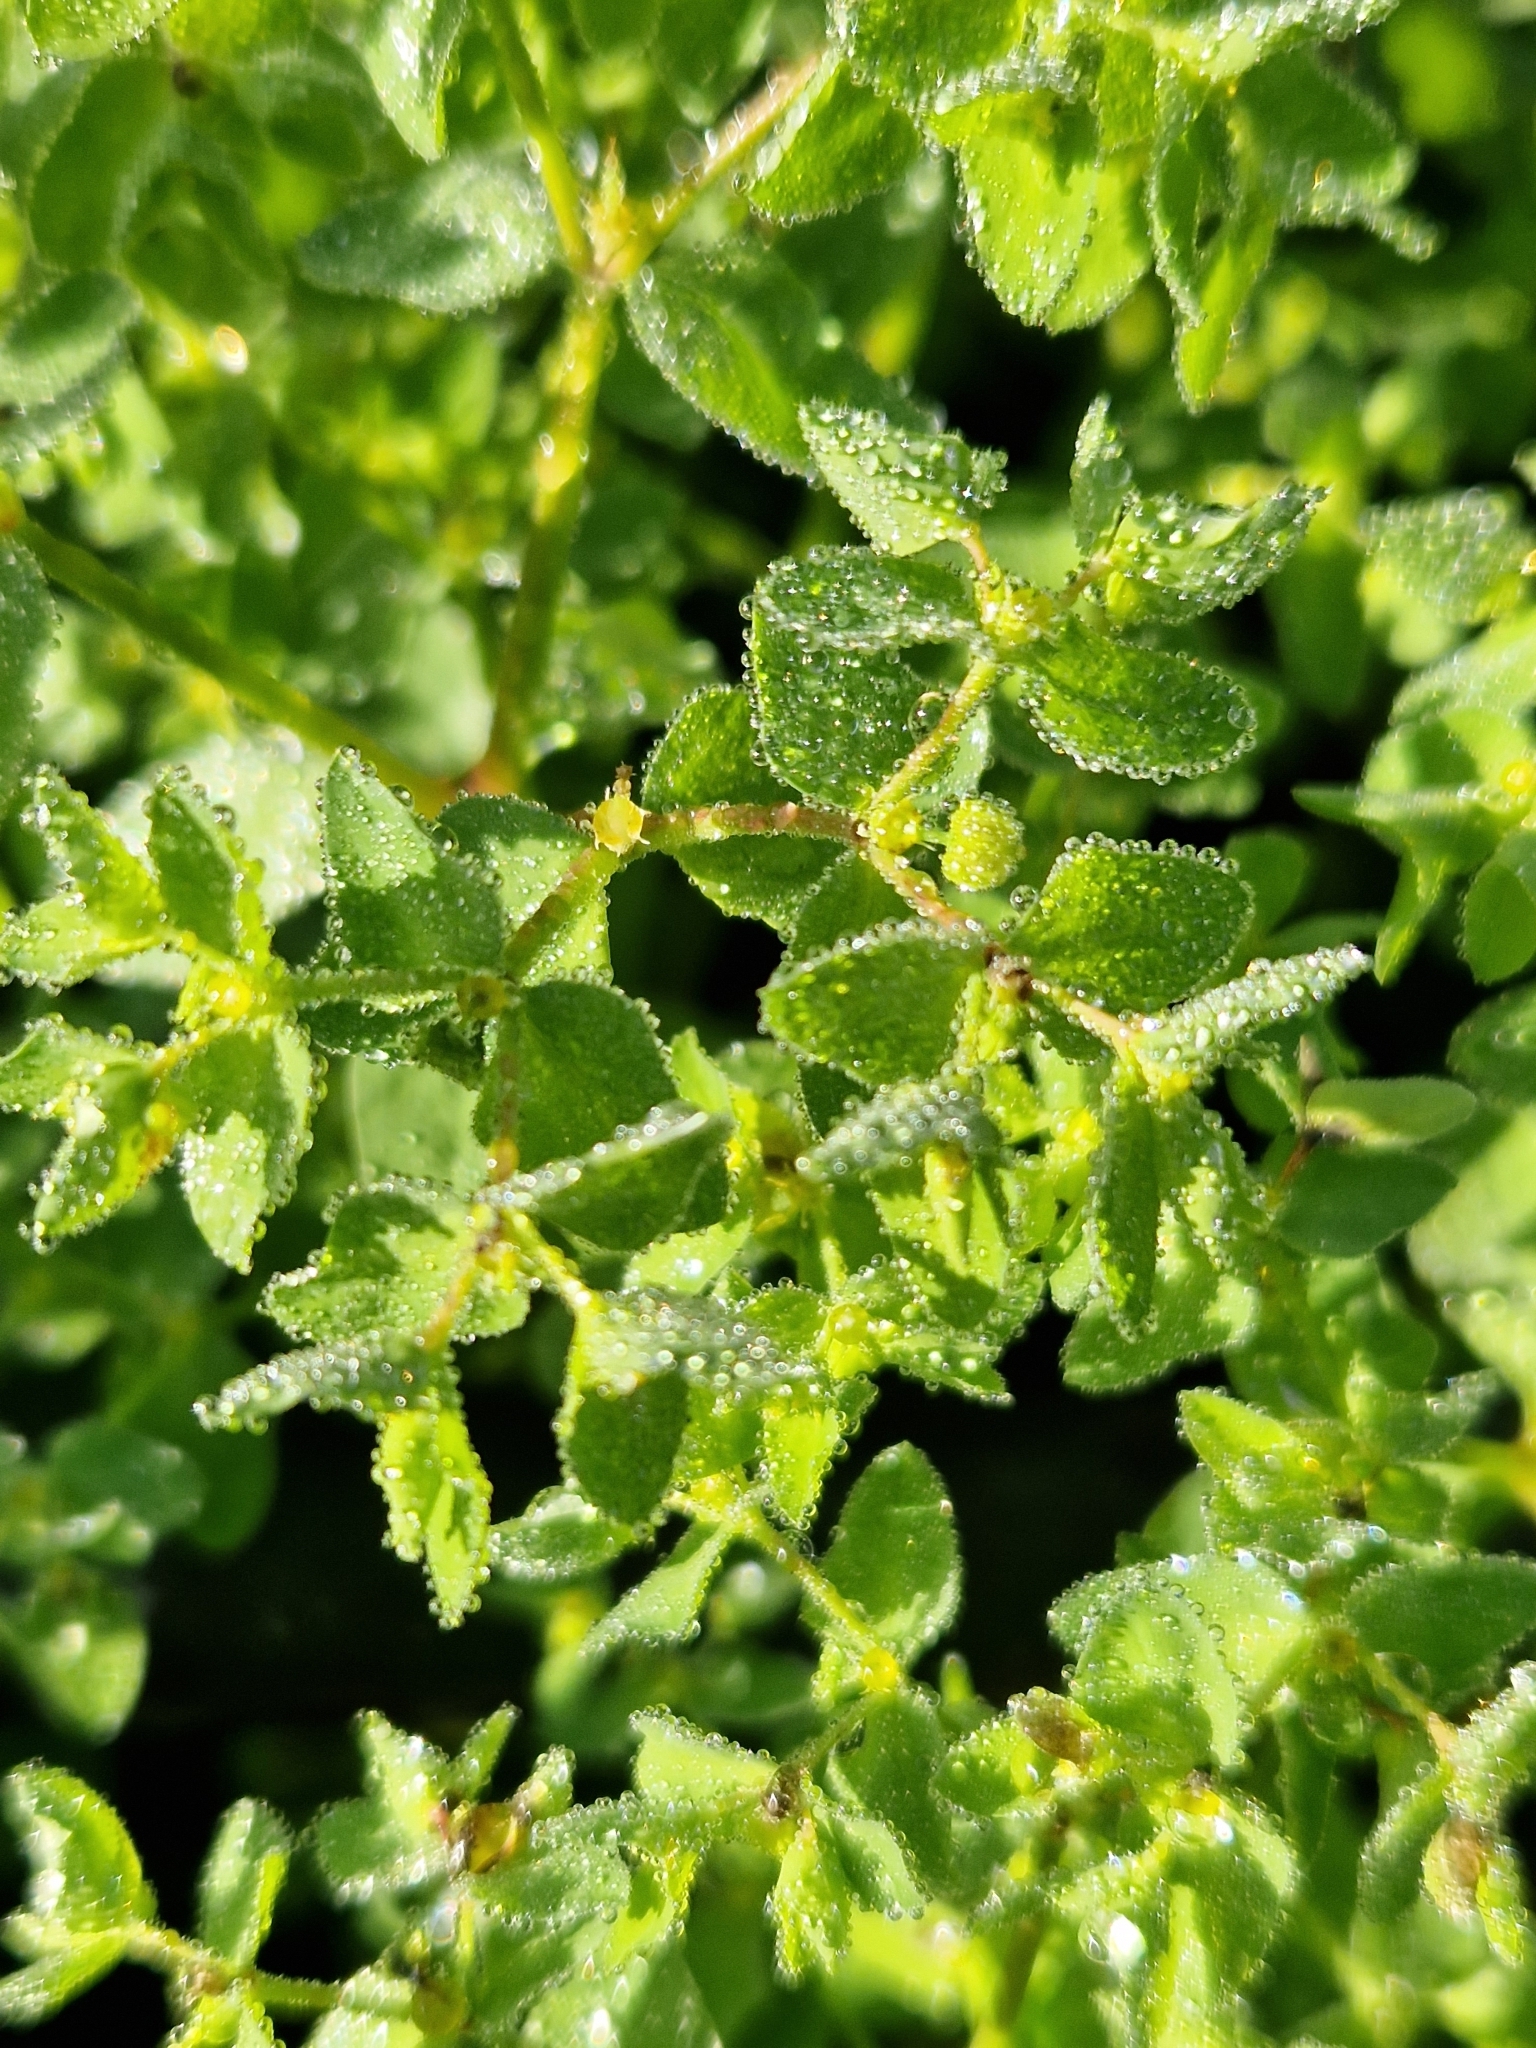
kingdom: Plantae
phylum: Tracheophyta
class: Magnoliopsida
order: Malpighiales
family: Euphorbiaceae
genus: Euphorbia
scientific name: Euphorbia peplus
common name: Petty spurge
